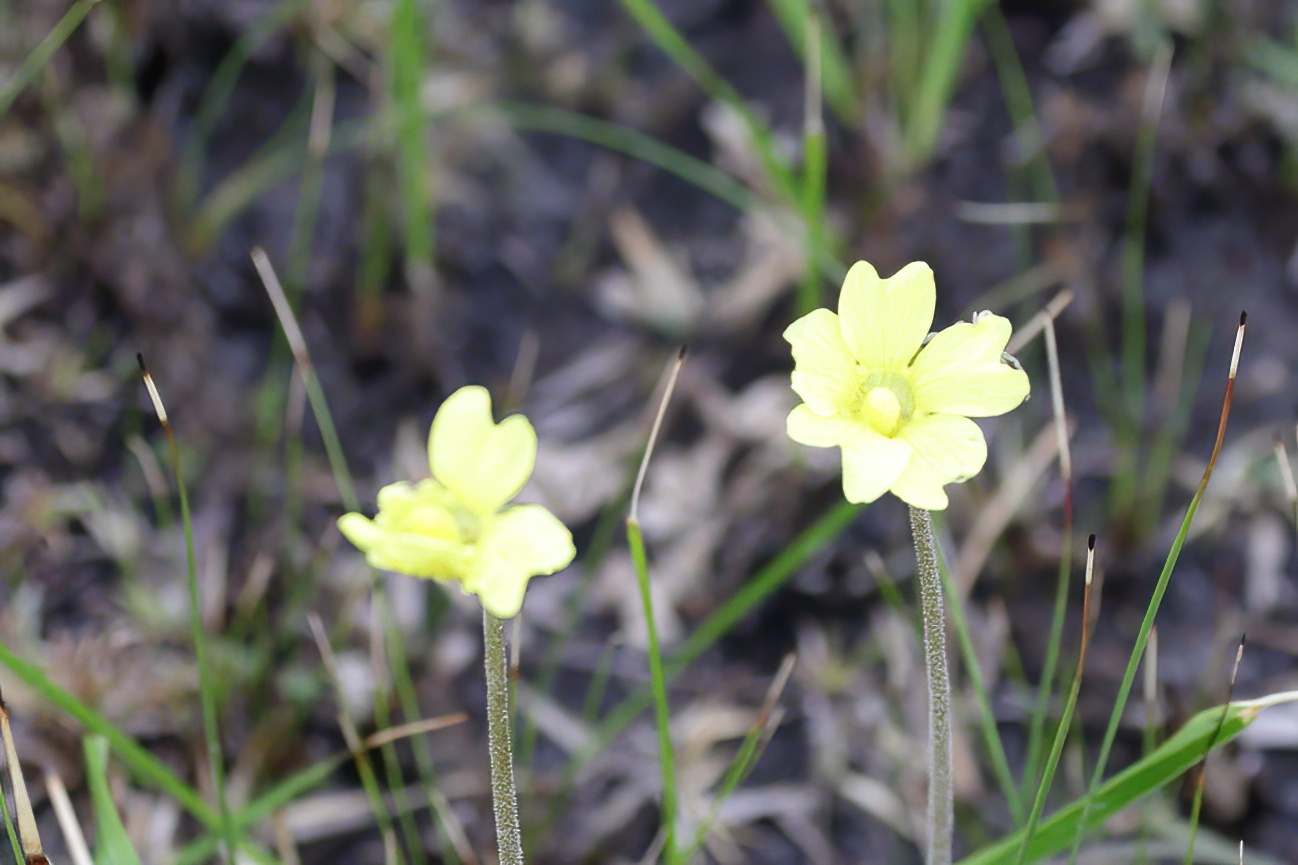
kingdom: Plantae
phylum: Tracheophyta
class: Magnoliopsida
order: Lamiales
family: Lentibulariaceae
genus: Pinguicula
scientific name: Pinguicula lutea
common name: Yellow butterwort
